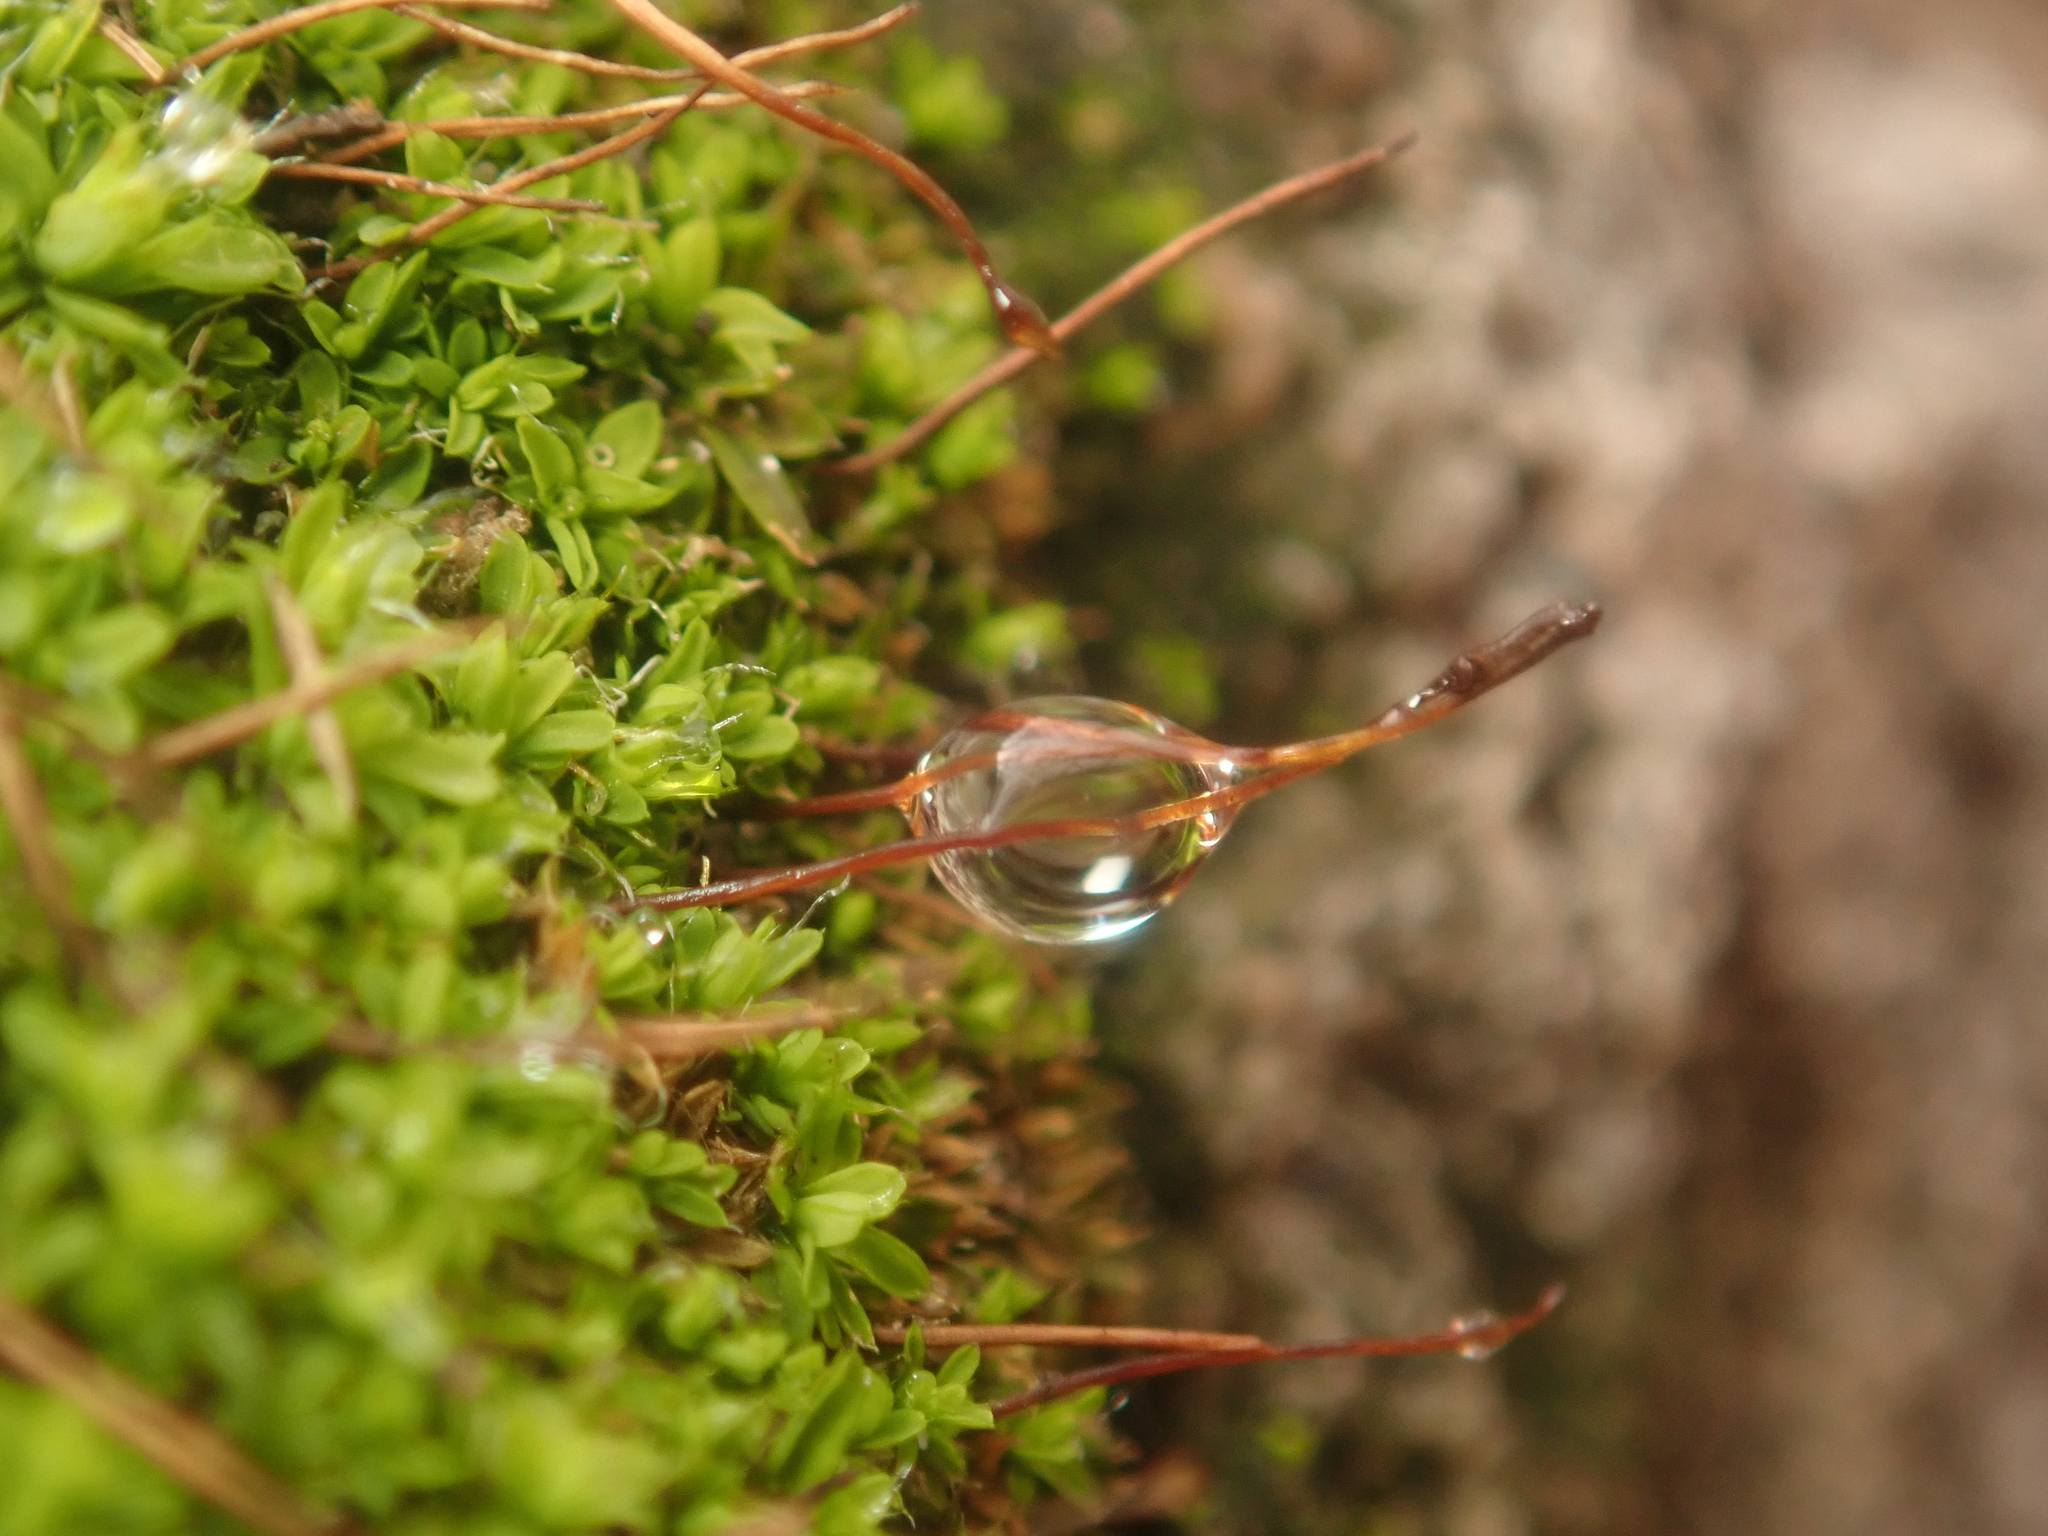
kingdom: Plantae
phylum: Bryophyta
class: Bryopsida
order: Pottiales
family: Pottiaceae
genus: Tortula
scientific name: Tortula muralis
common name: Wall screw-moss
